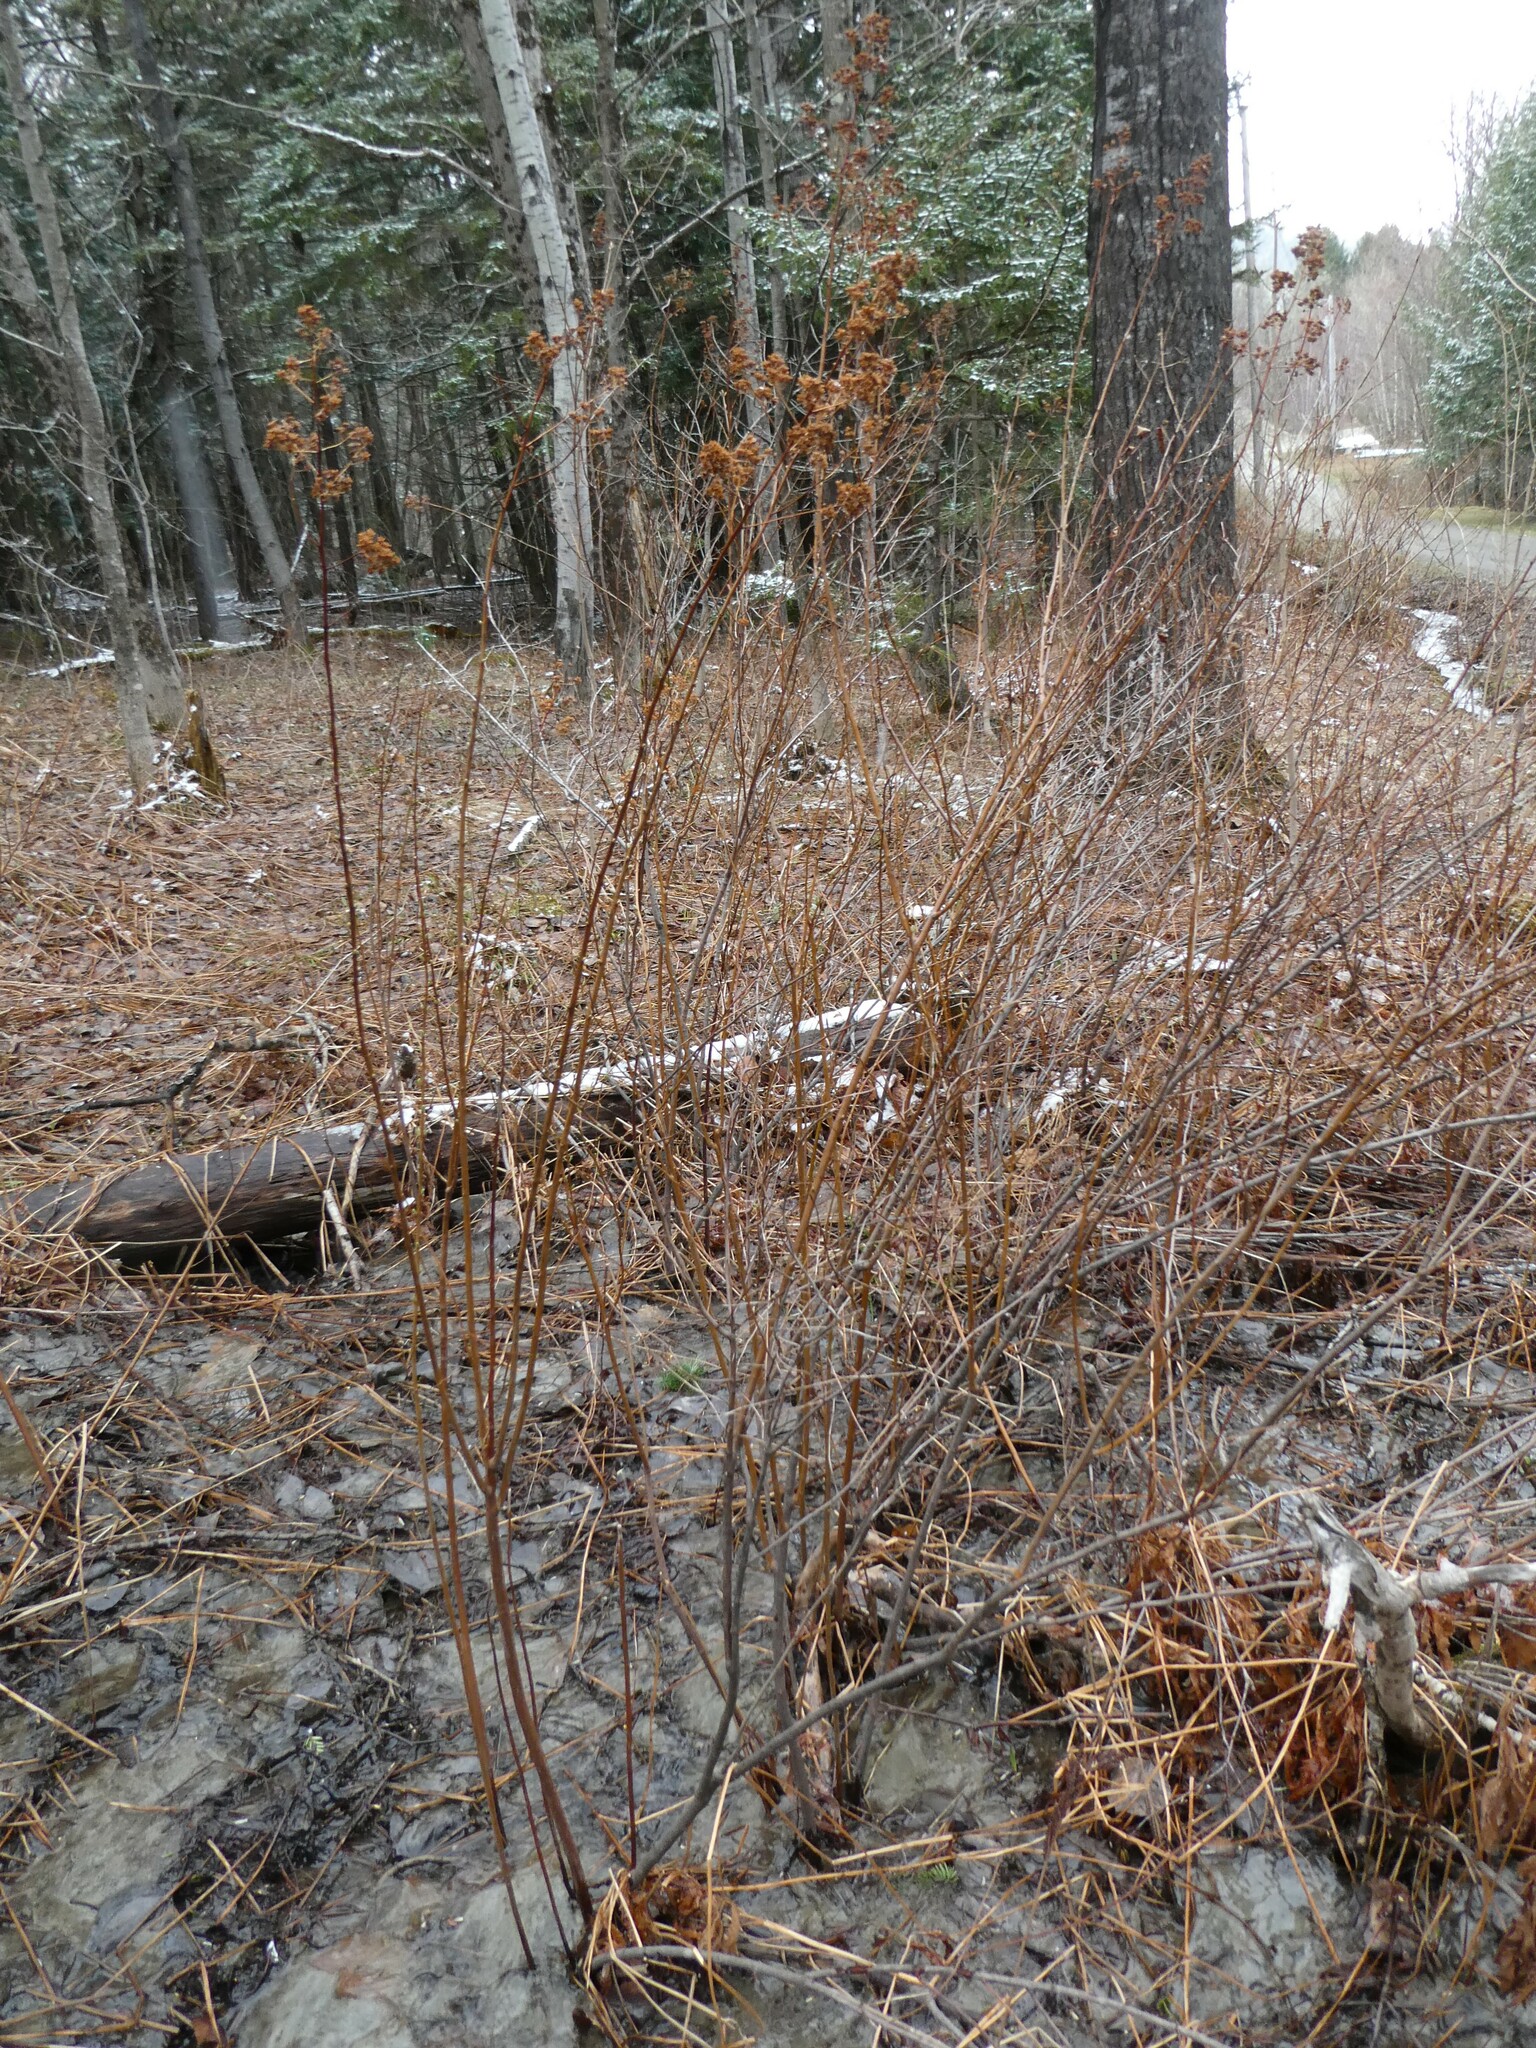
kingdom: Plantae
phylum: Tracheophyta
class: Magnoliopsida
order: Rosales
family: Rosaceae
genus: Spiraea
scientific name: Spiraea alba
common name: Pale bridewort
